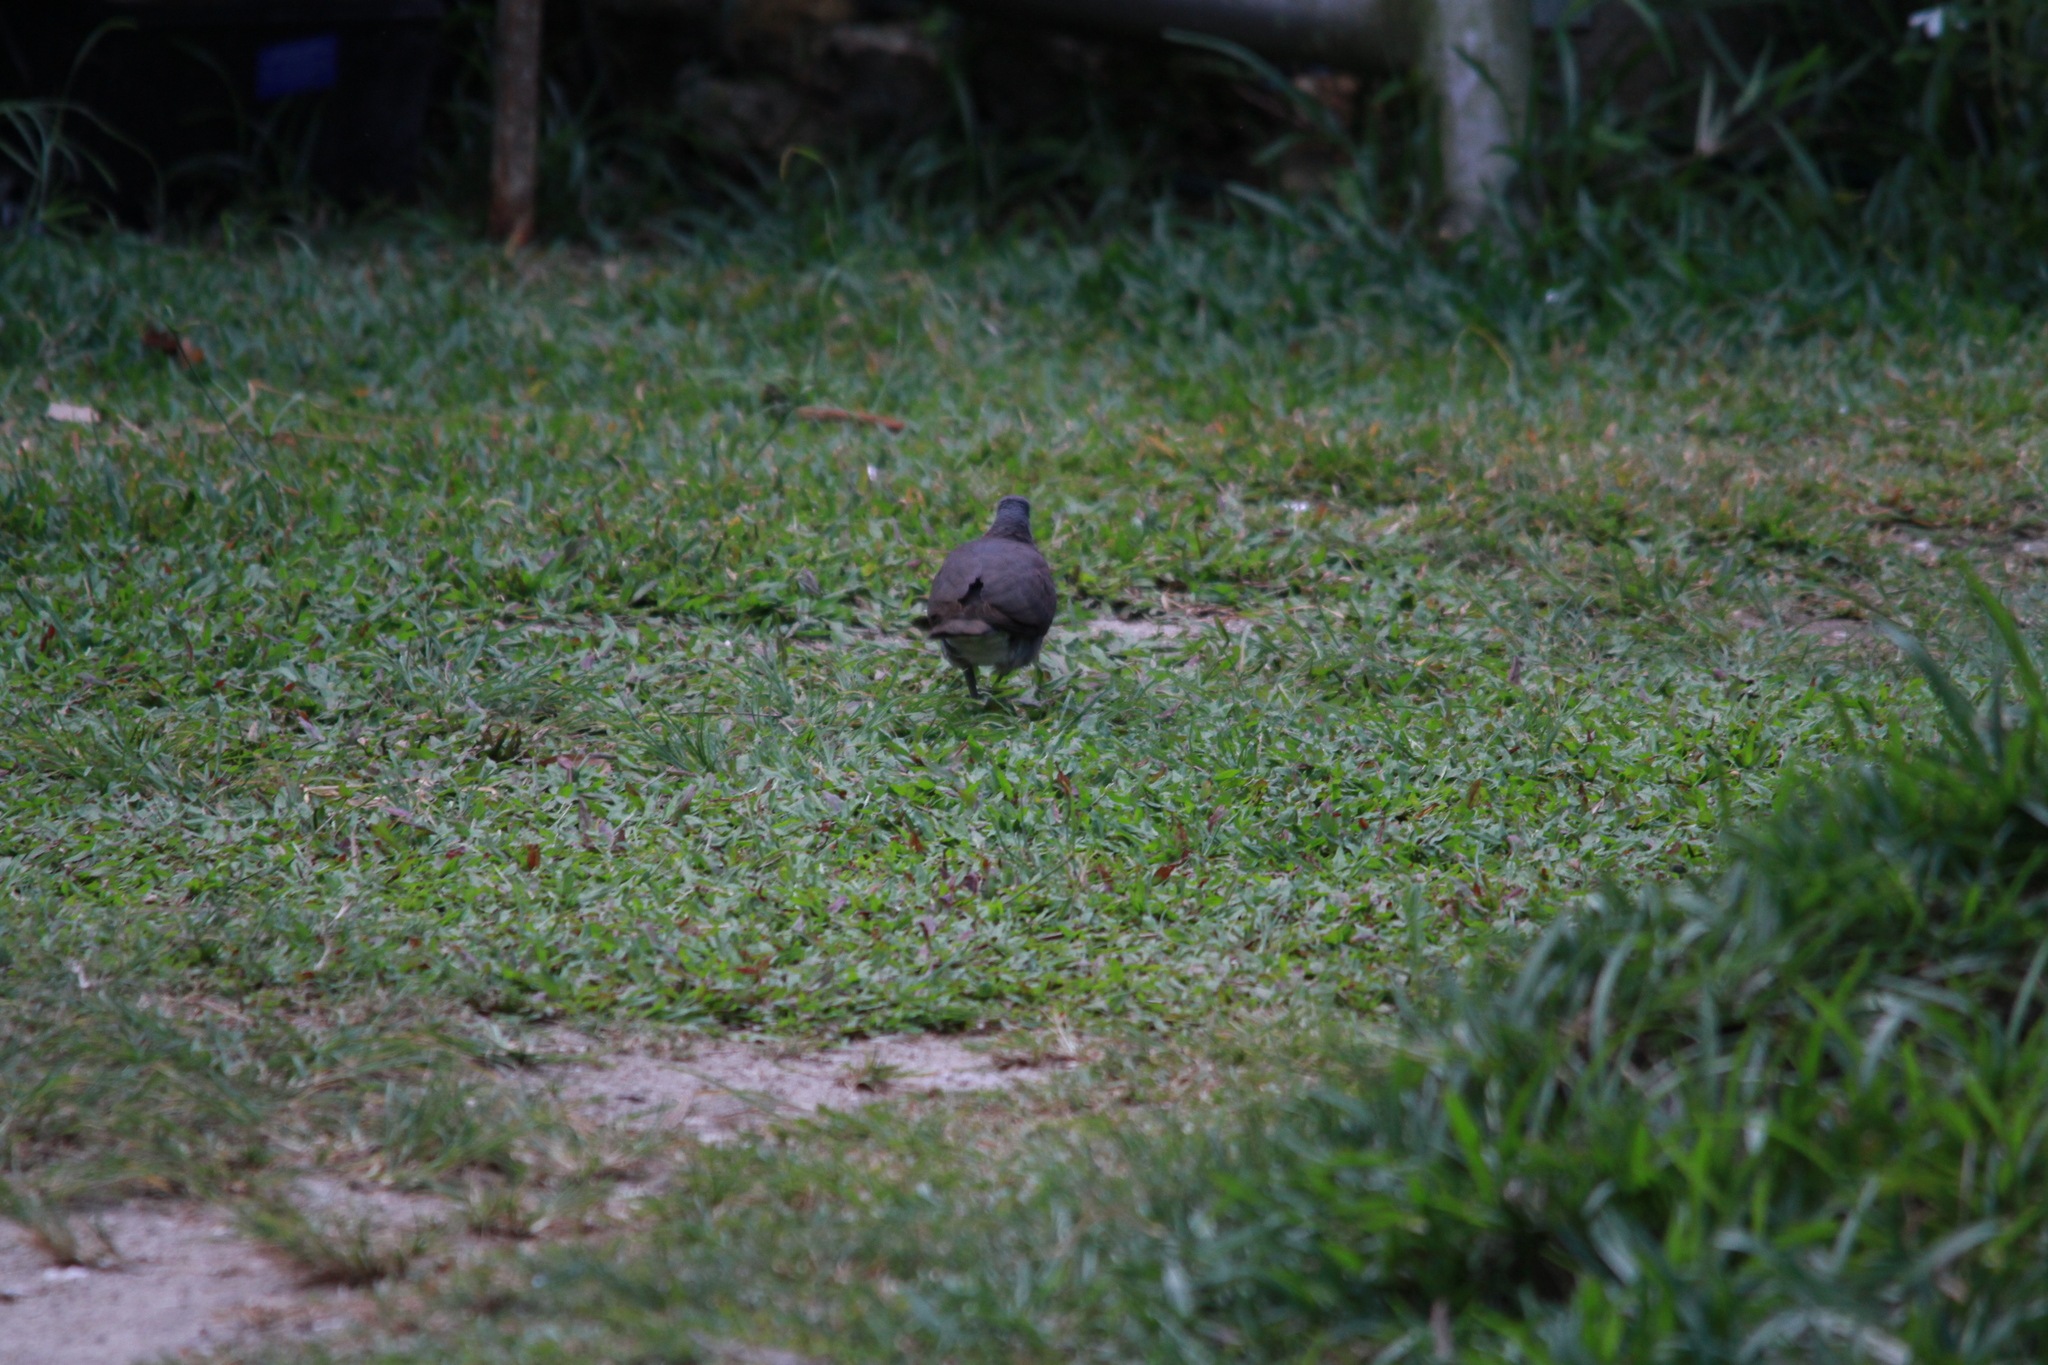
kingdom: Animalia
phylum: Chordata
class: Aves
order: Columbiformes
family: Columbidae
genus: Nesoenas
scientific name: Nesoenas picturatus
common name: Malagasy turtle dove
